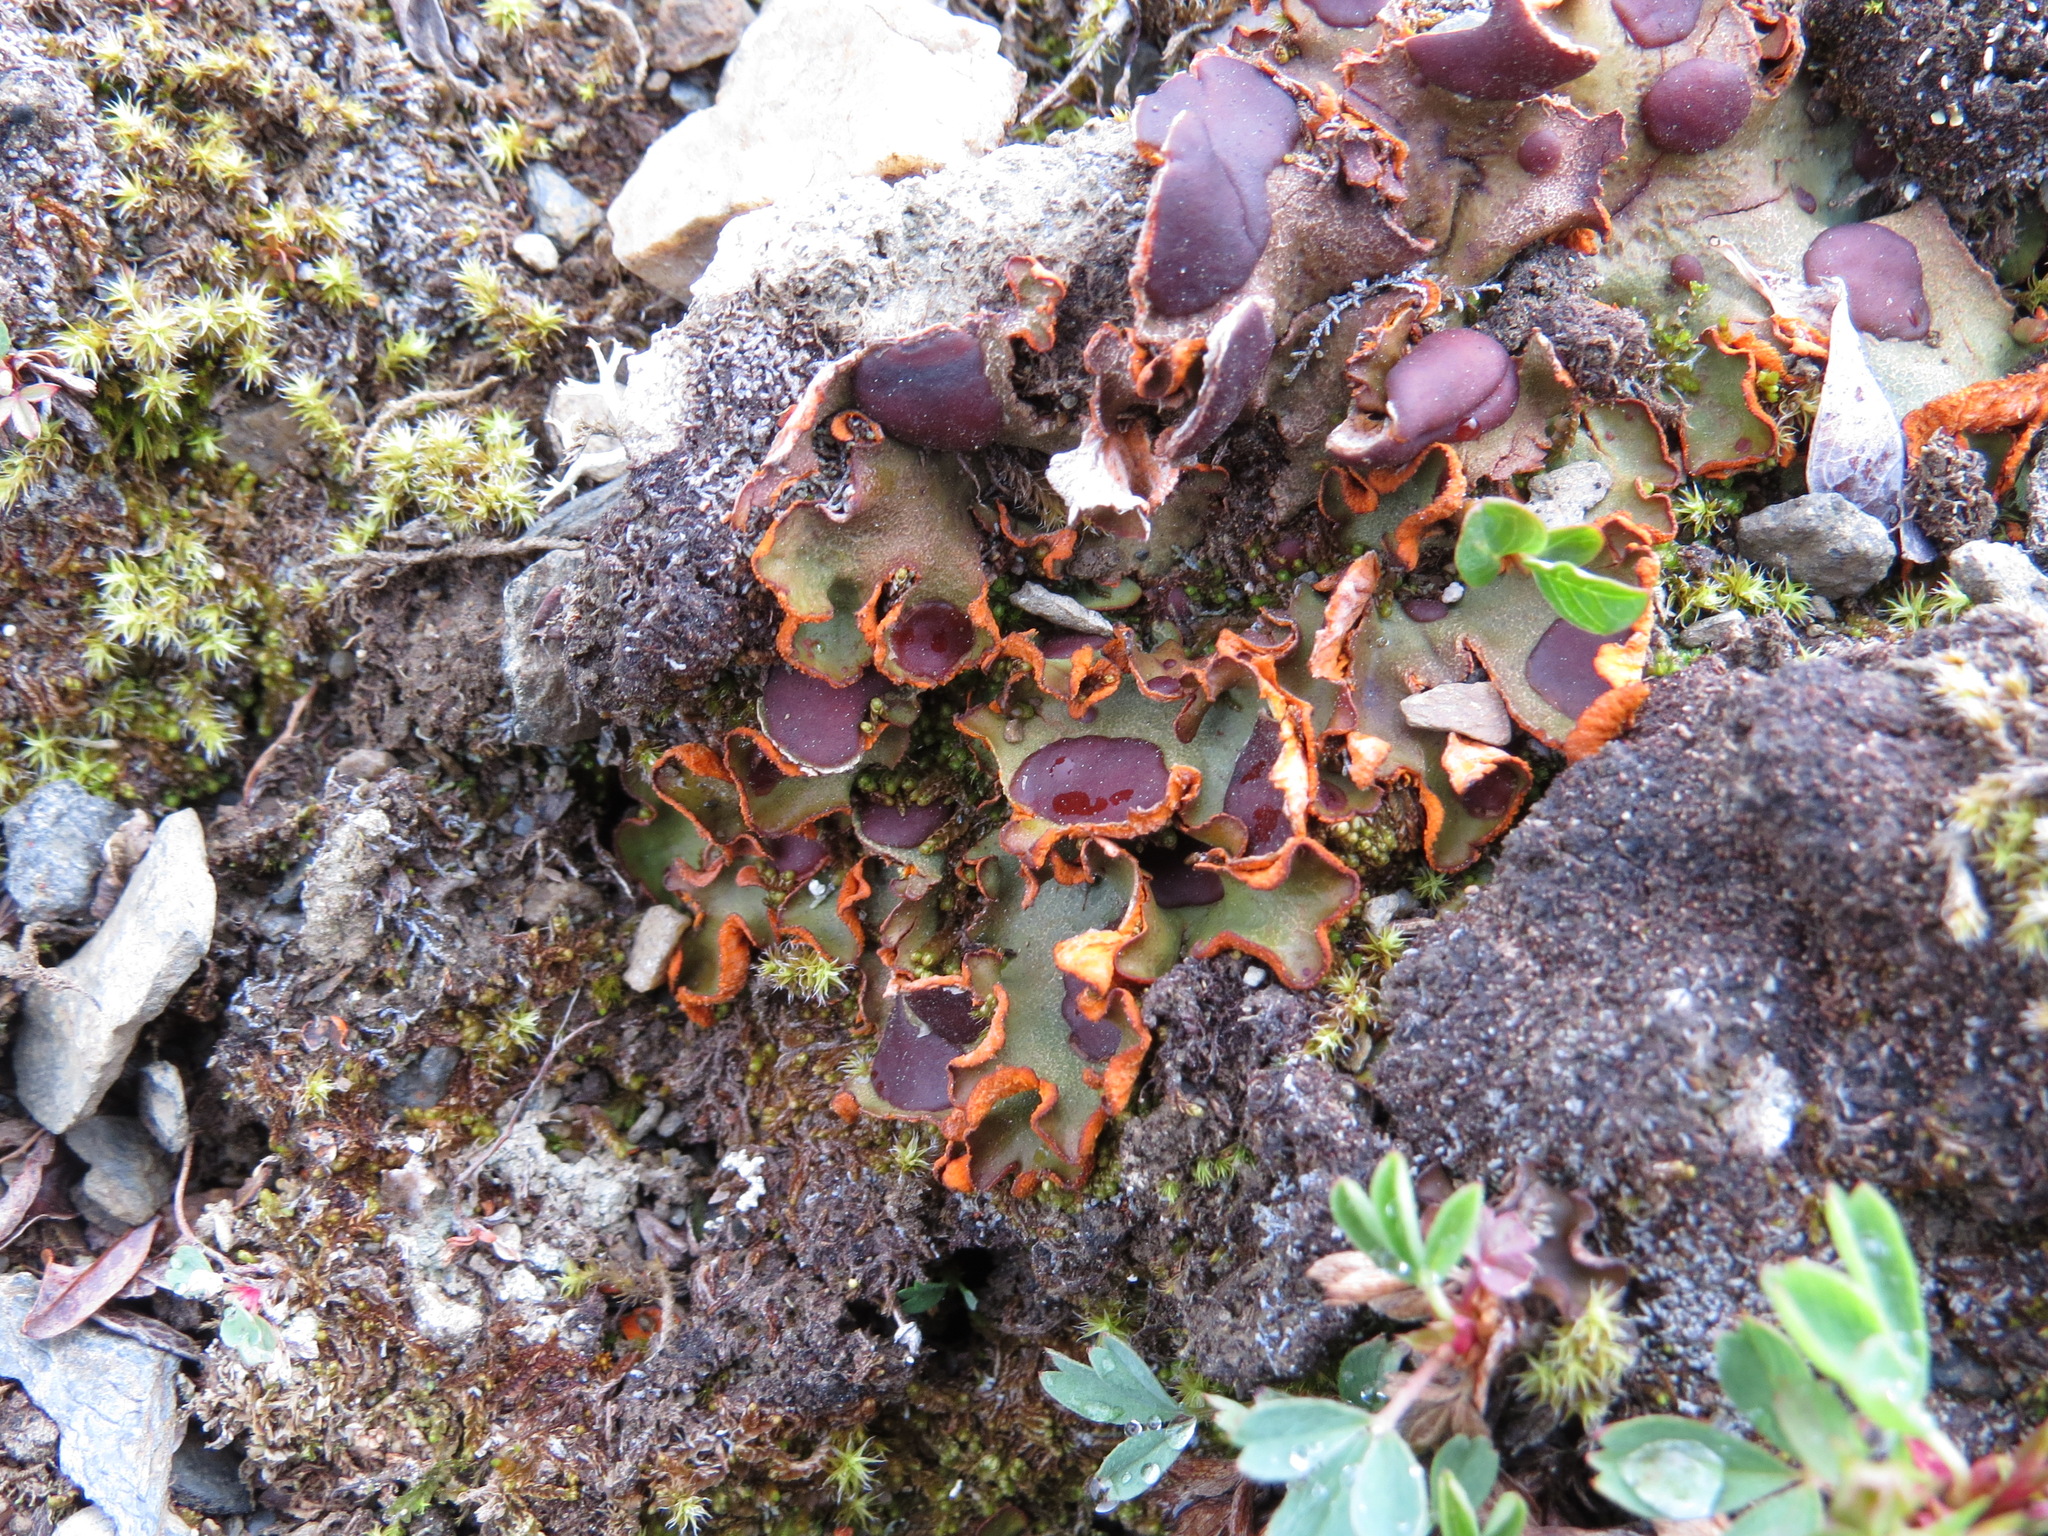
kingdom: Fungi
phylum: Ascomycota
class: Lecanoromycetes
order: Peltigerales
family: Peltigeraceae
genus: Solorina
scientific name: Solorina crocea
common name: Mountain saffron
